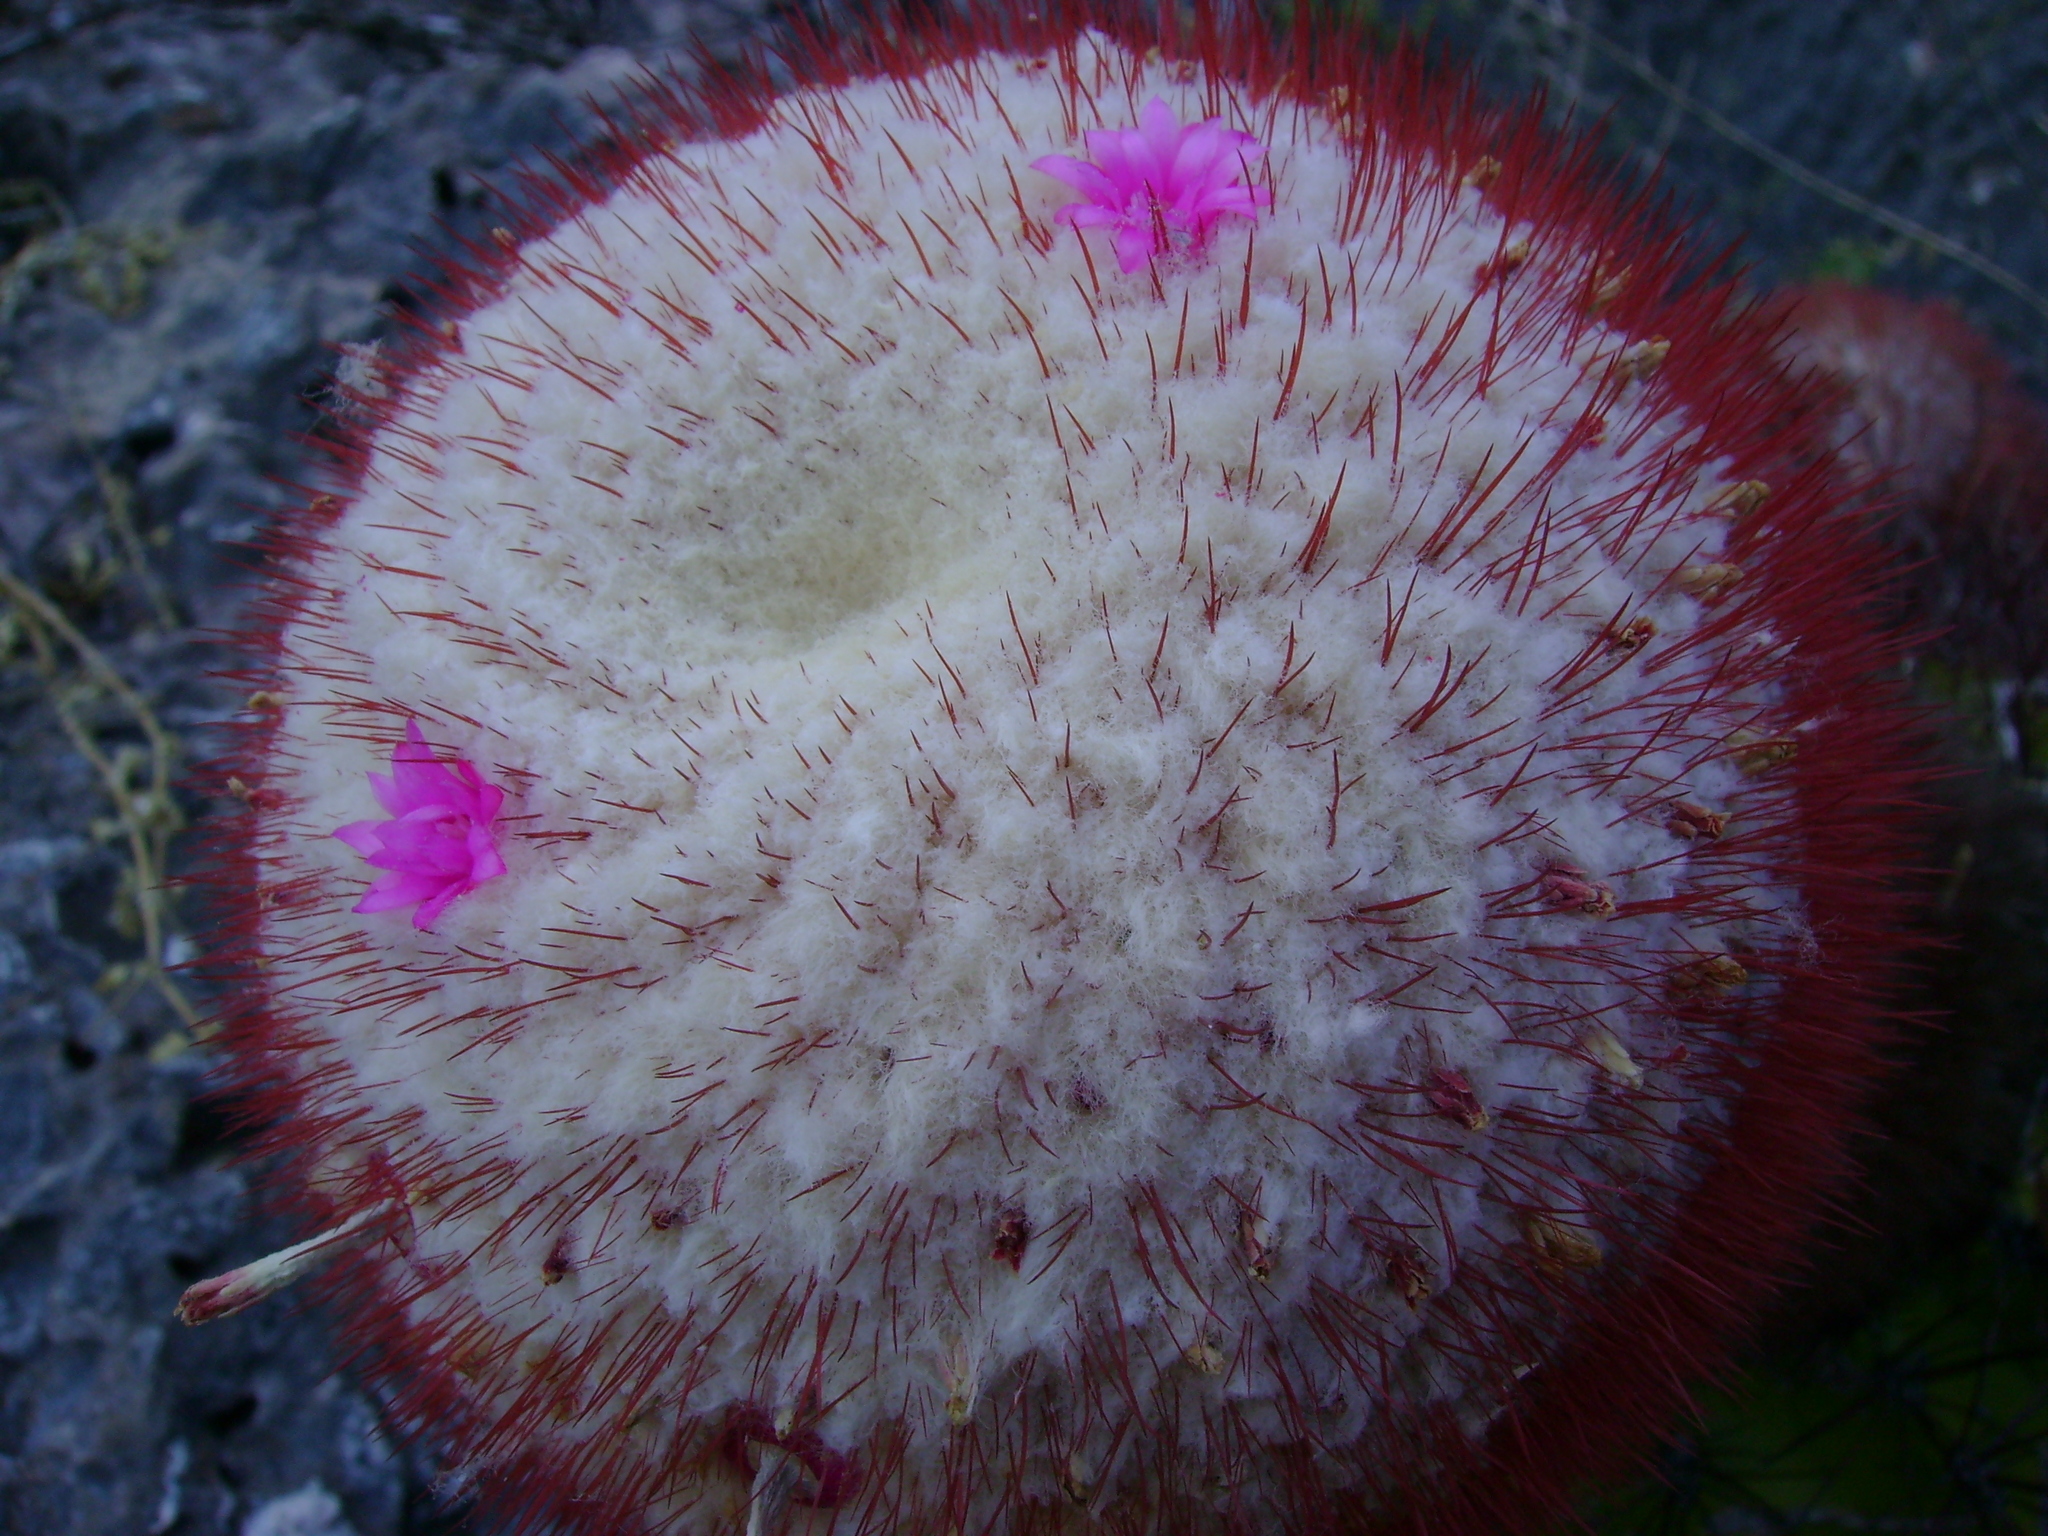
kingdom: Plantae
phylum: Tracheophyta
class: Magnoliopsida
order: Caryophyllales
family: Cactaceae
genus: Melocactus
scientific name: Melocactus pedernalensis
